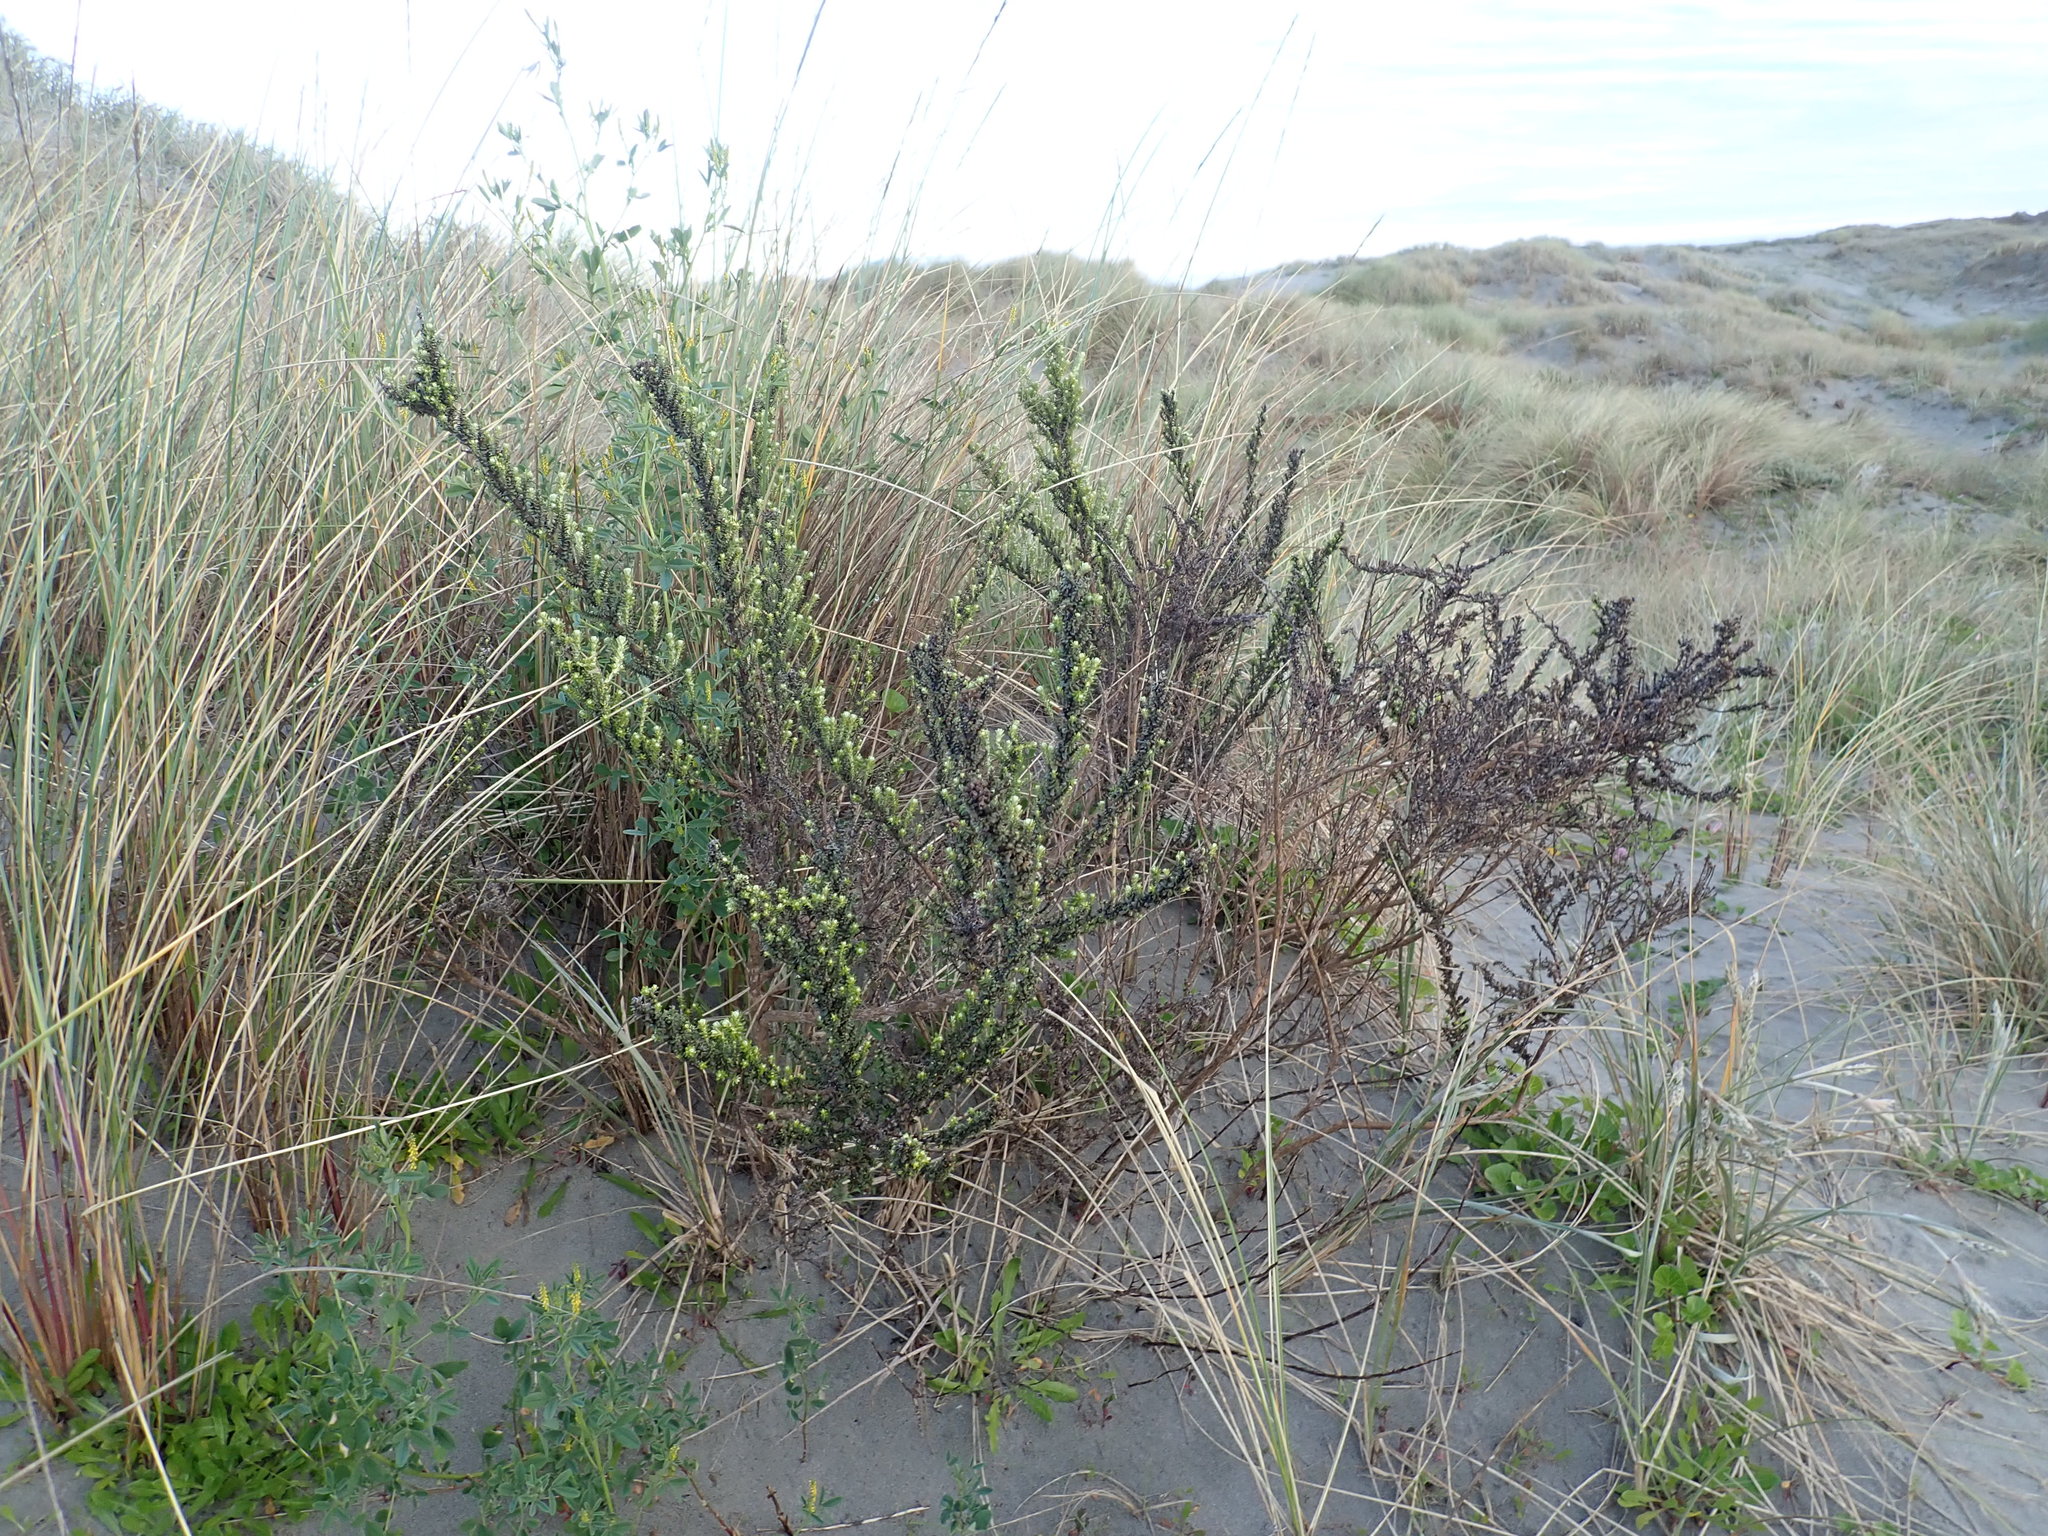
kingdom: Plantae
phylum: Tracheophyta
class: Magnoliopsida
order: Asterales
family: Asteraceae
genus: Ozothamnus
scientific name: Ozothamnus leptophyllus
